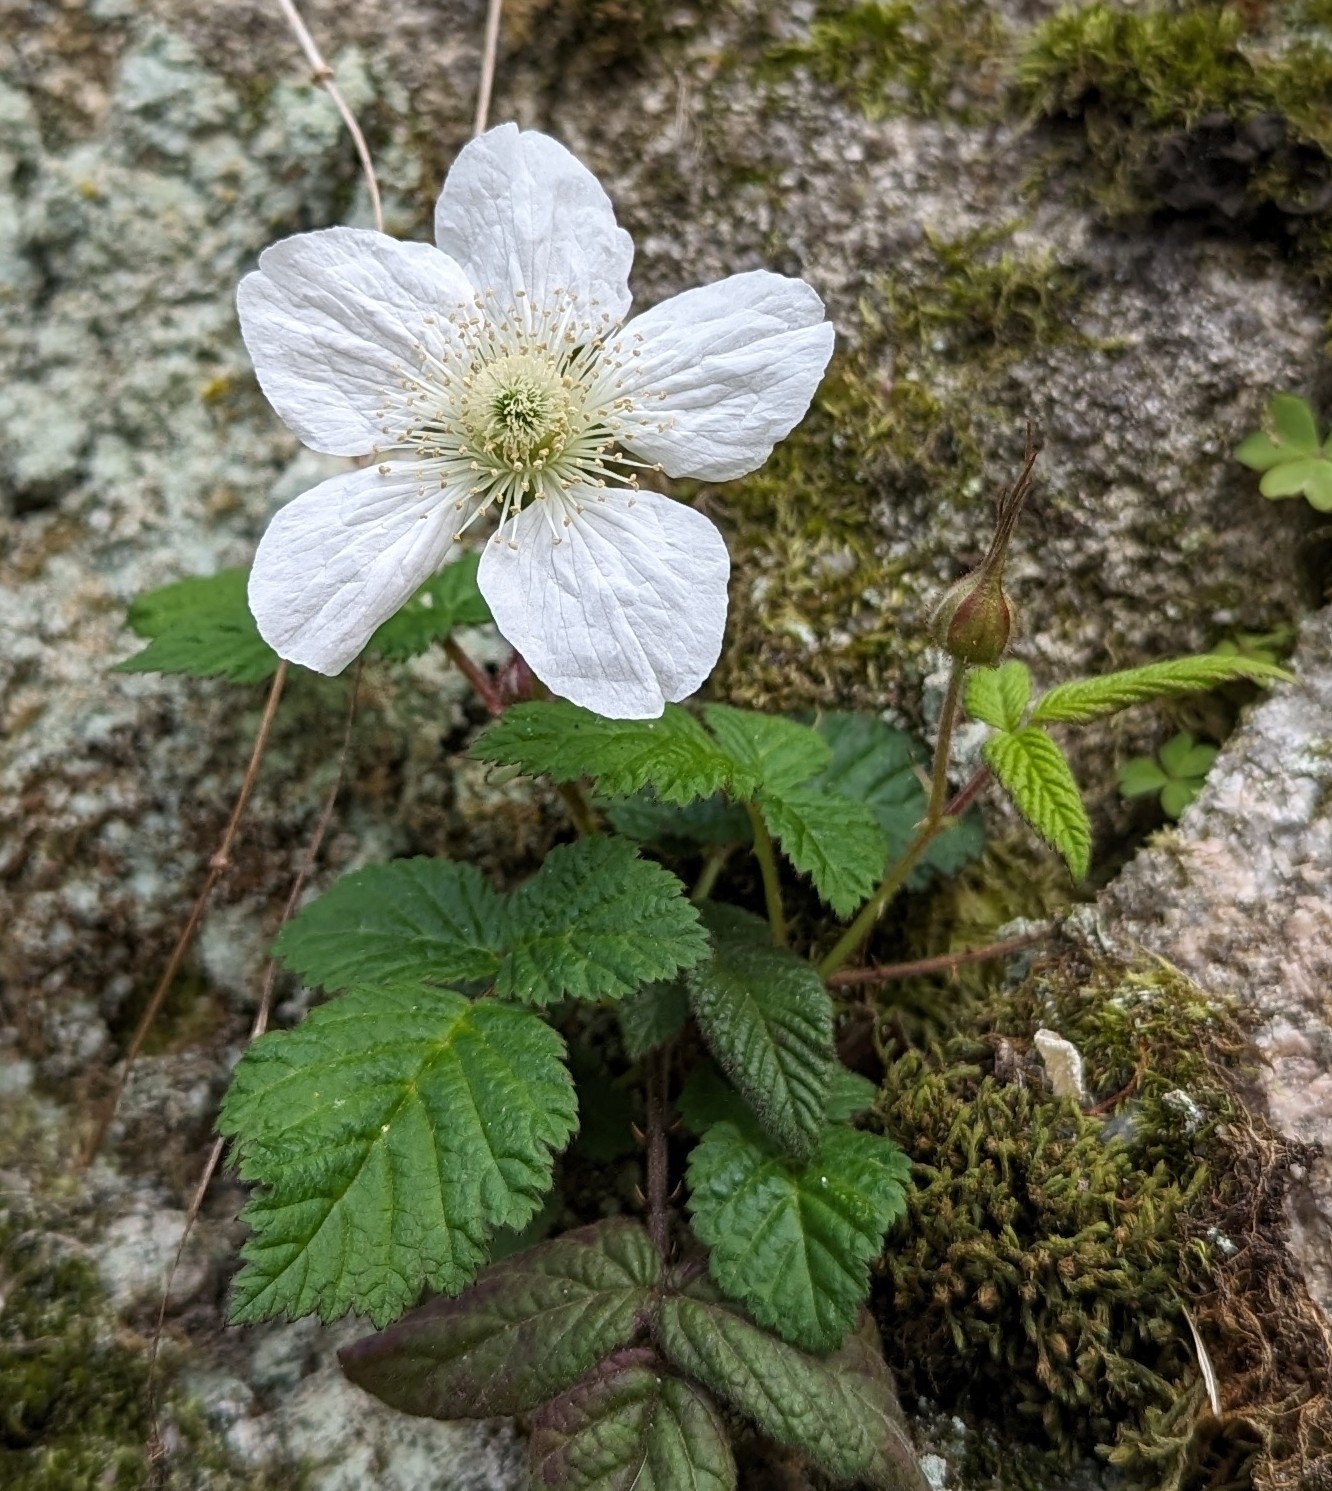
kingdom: Plantae
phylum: Tracheophyta
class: Magnoliopsida
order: Rosales
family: Rosaceae
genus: Rubus
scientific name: Rubus hirsutus
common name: Hirsute raspberry
